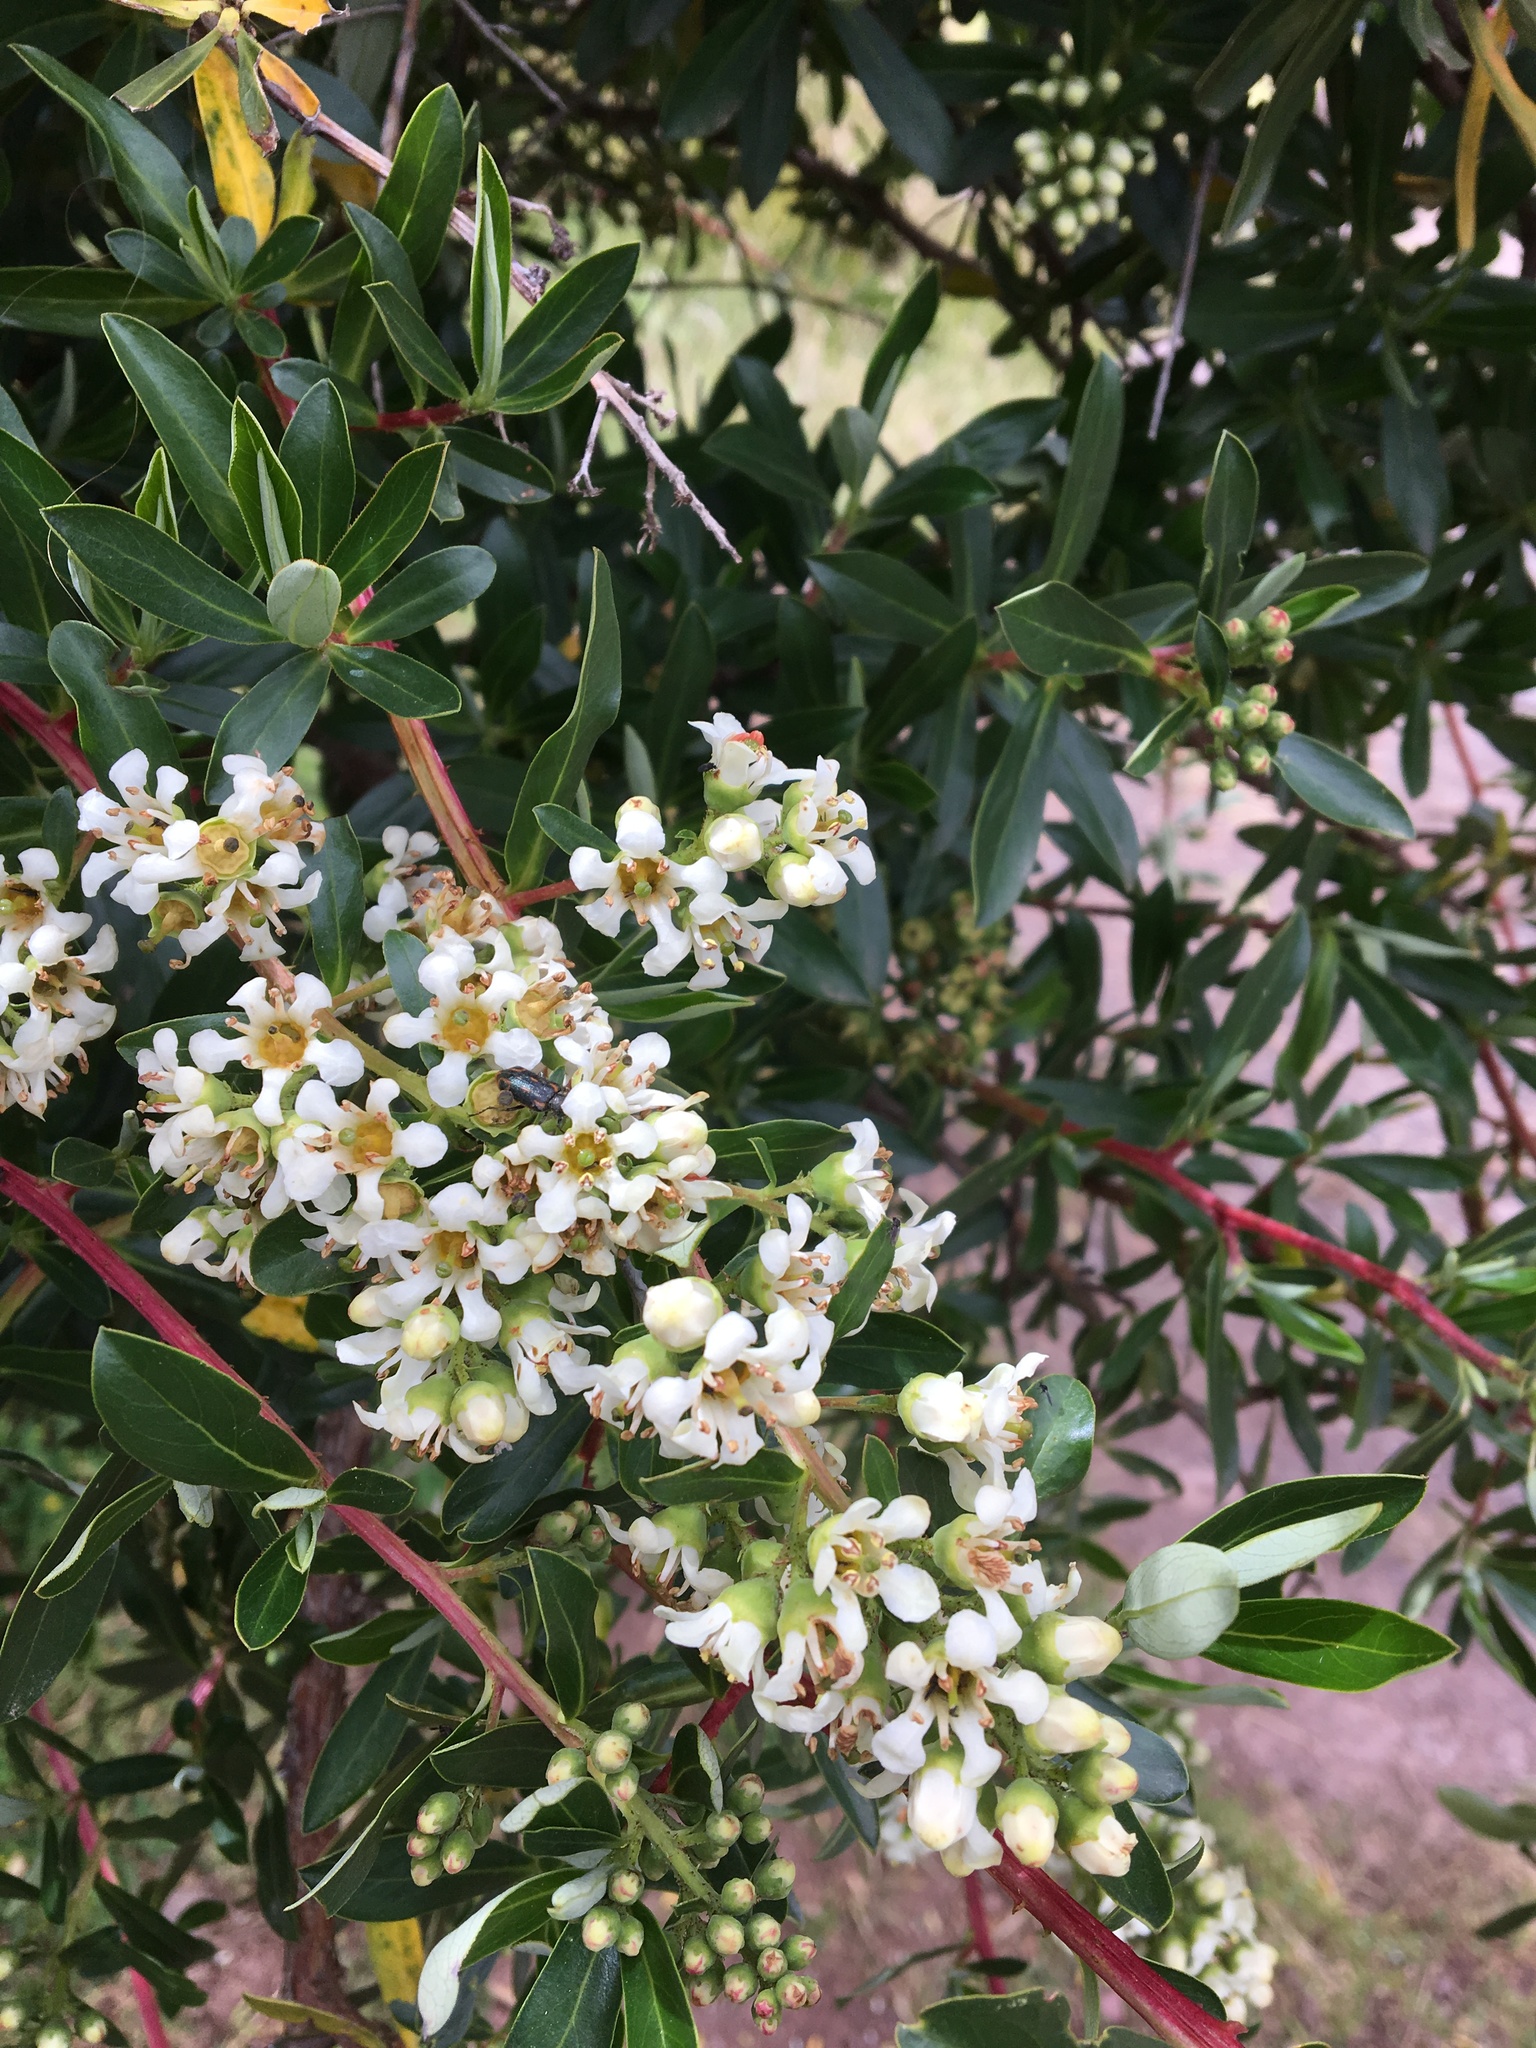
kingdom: Plantae
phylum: Tracheophyta
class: Magnoliopsida
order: Escalloniales
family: Escalloniaceae
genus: Escallonia
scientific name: Escallonia resinosa
